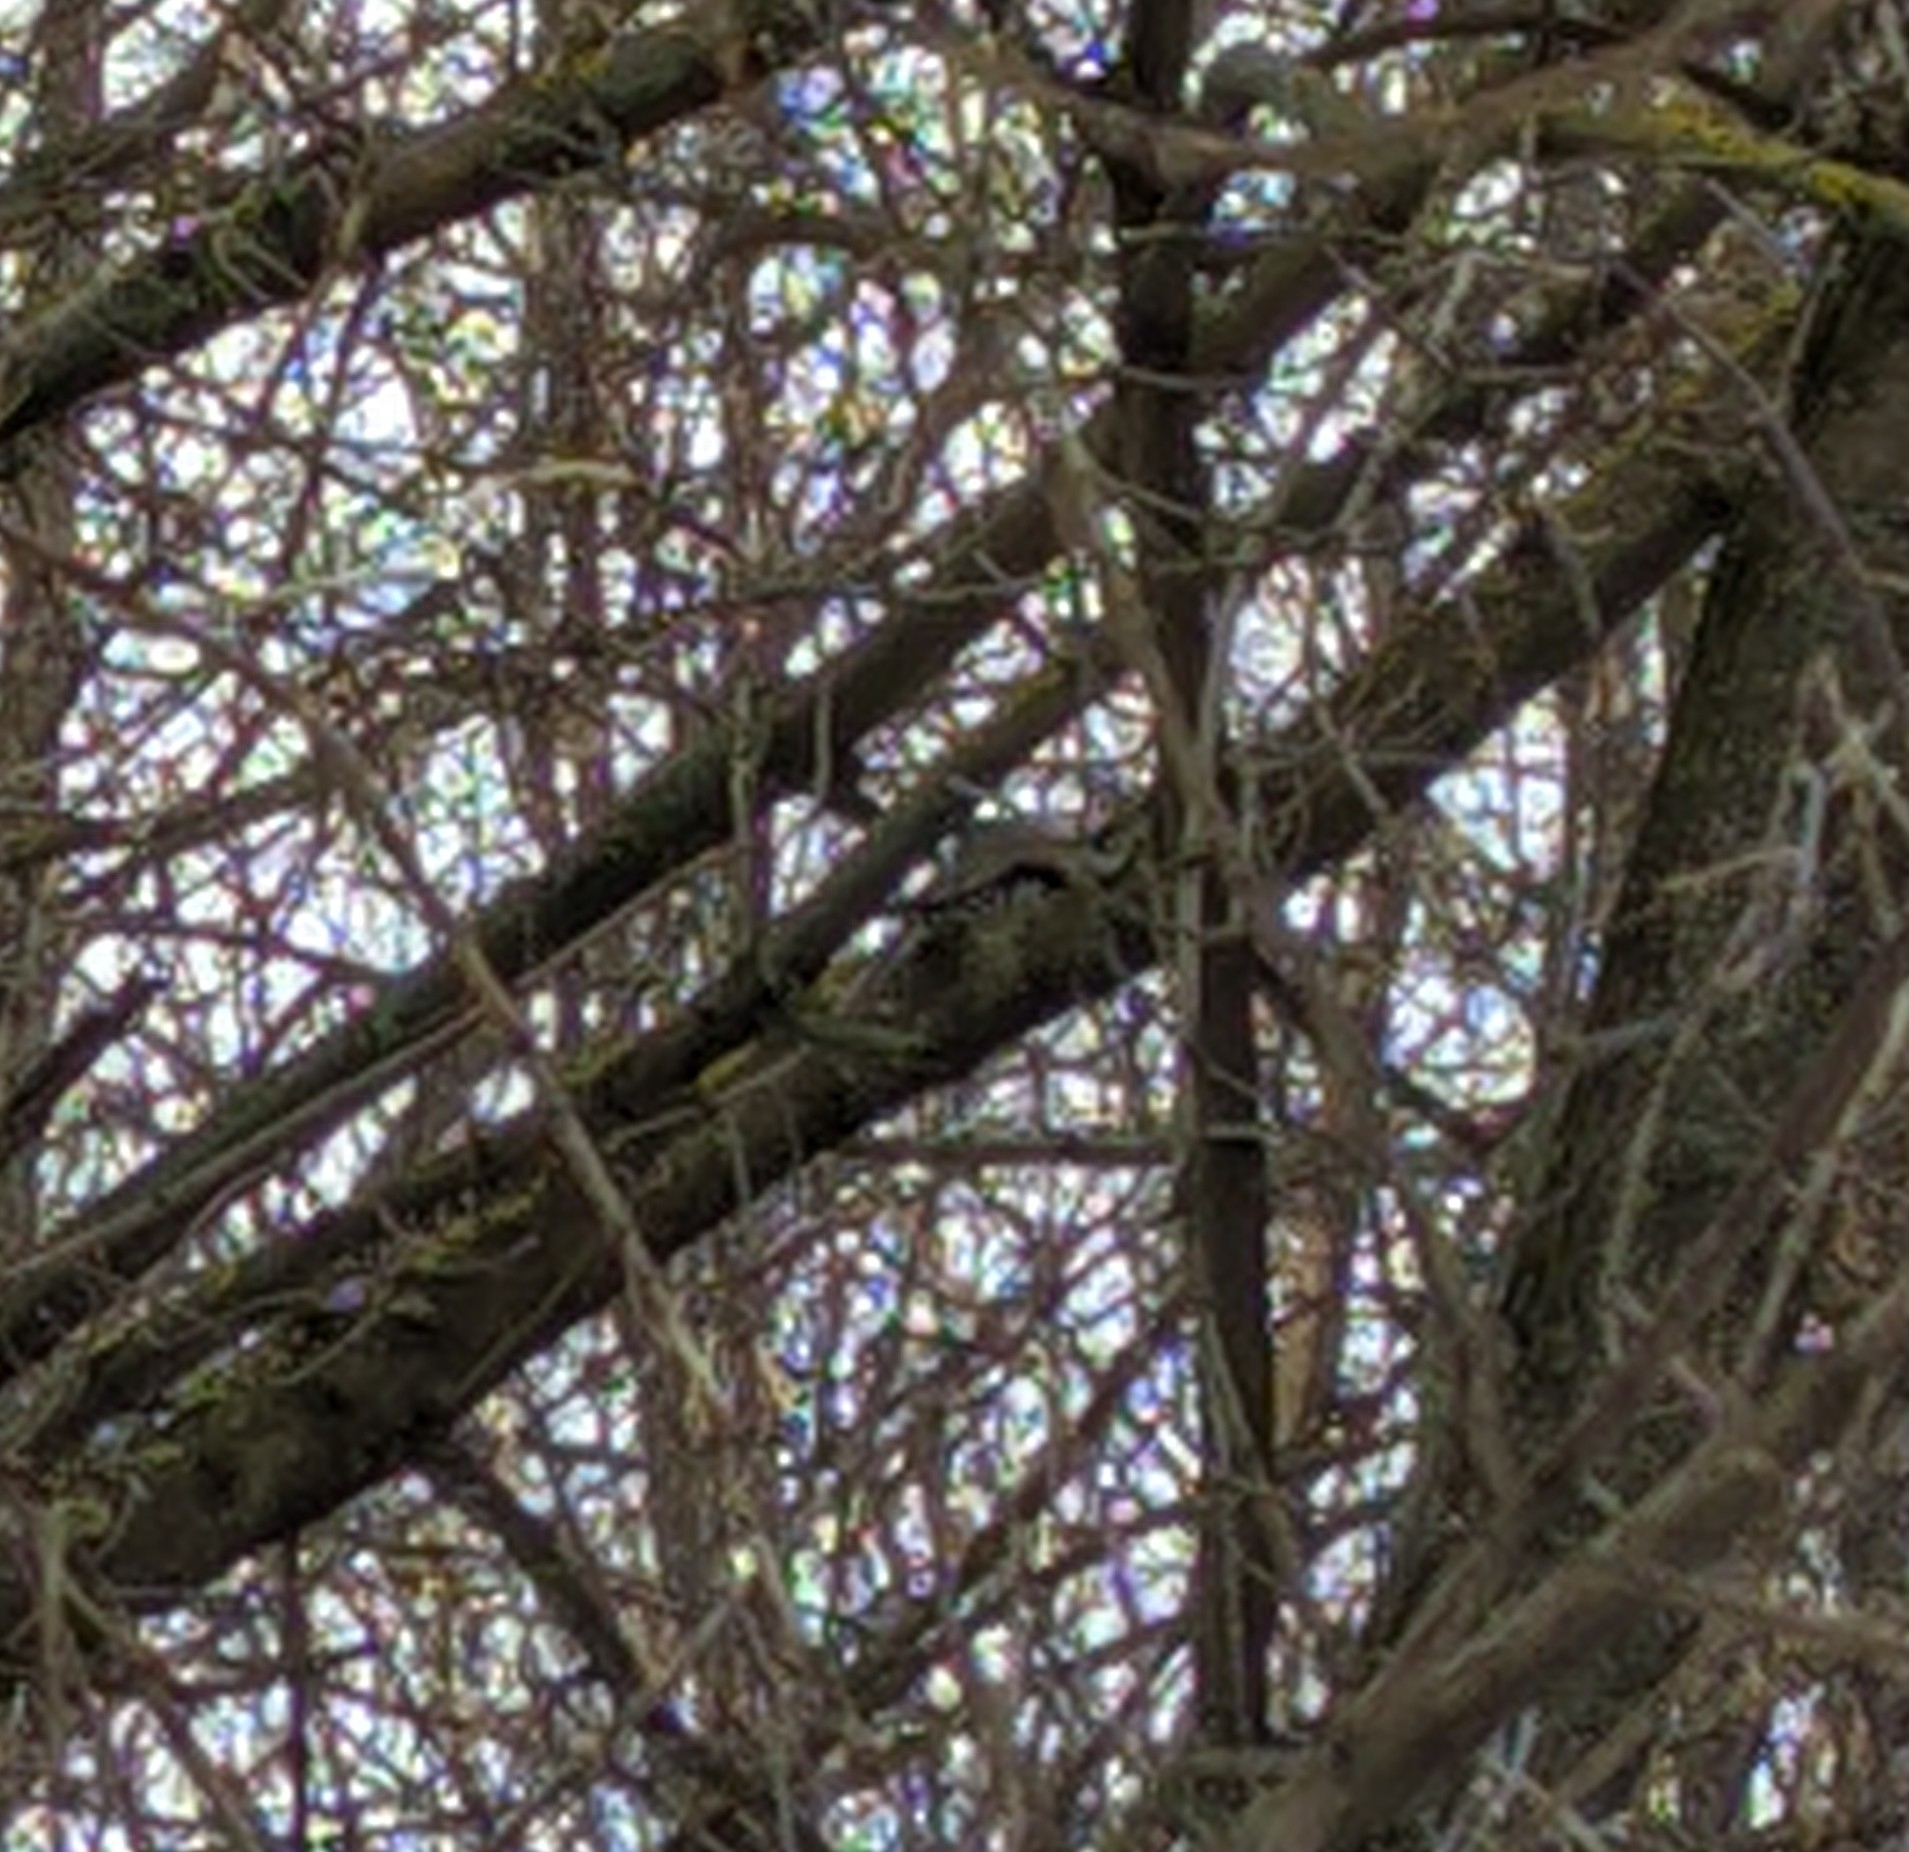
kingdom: Animalia
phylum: Chordata
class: Aves
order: Piciformes
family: Picidae
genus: Dryobates
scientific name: Dryobates minor
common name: Lesser spotted woodpecker
